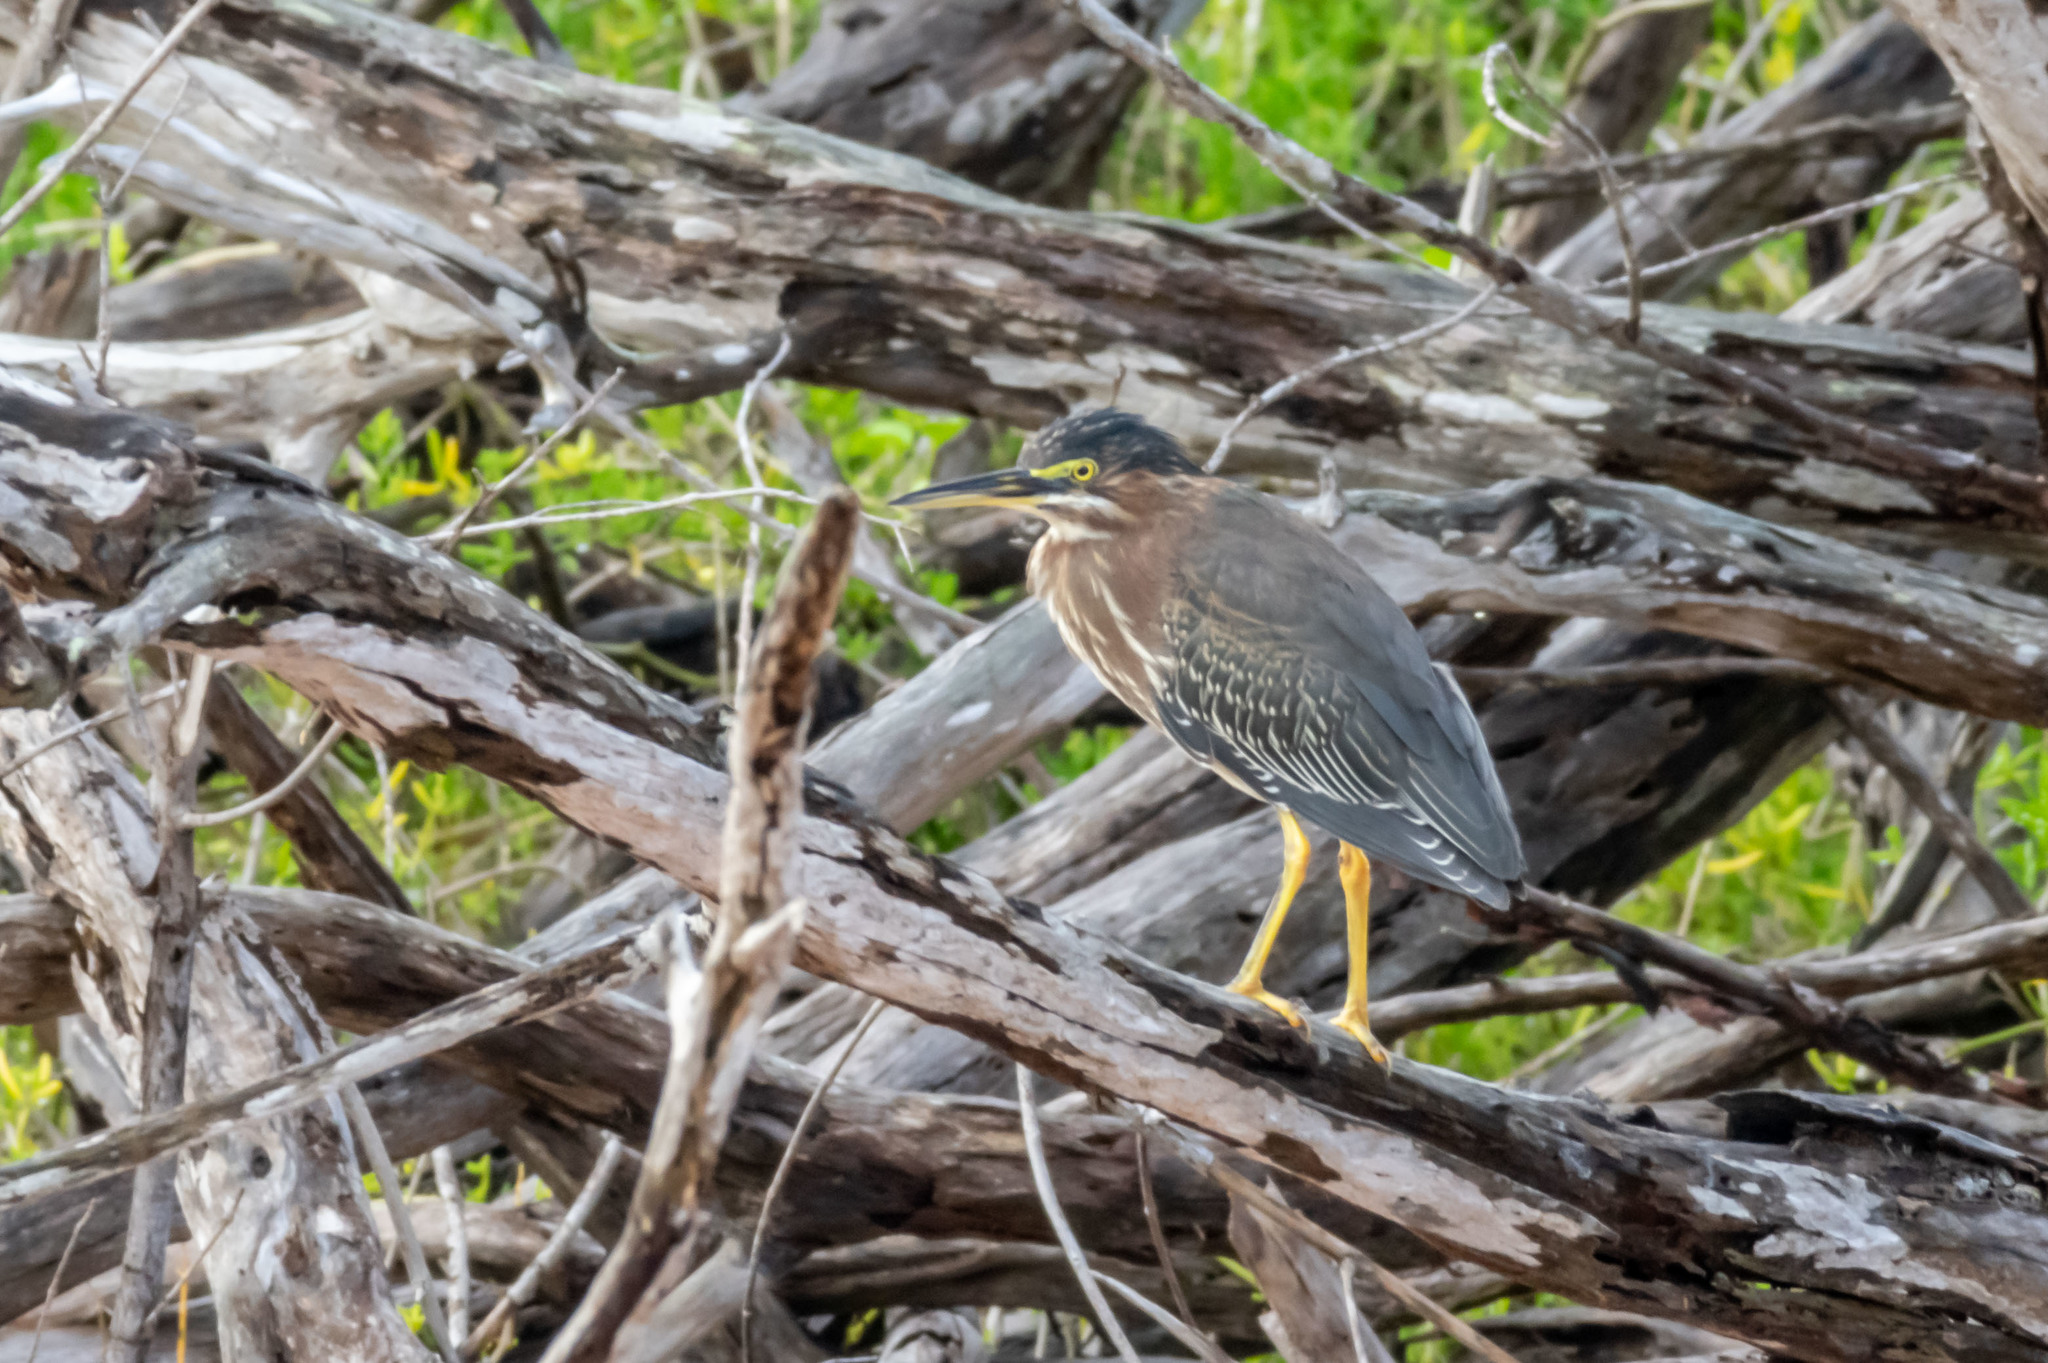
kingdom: Animalia
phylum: Chordata
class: Aves
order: Pelecaniformes
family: Ardeidae
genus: Butorides
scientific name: Butorides virescens
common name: Green heron
